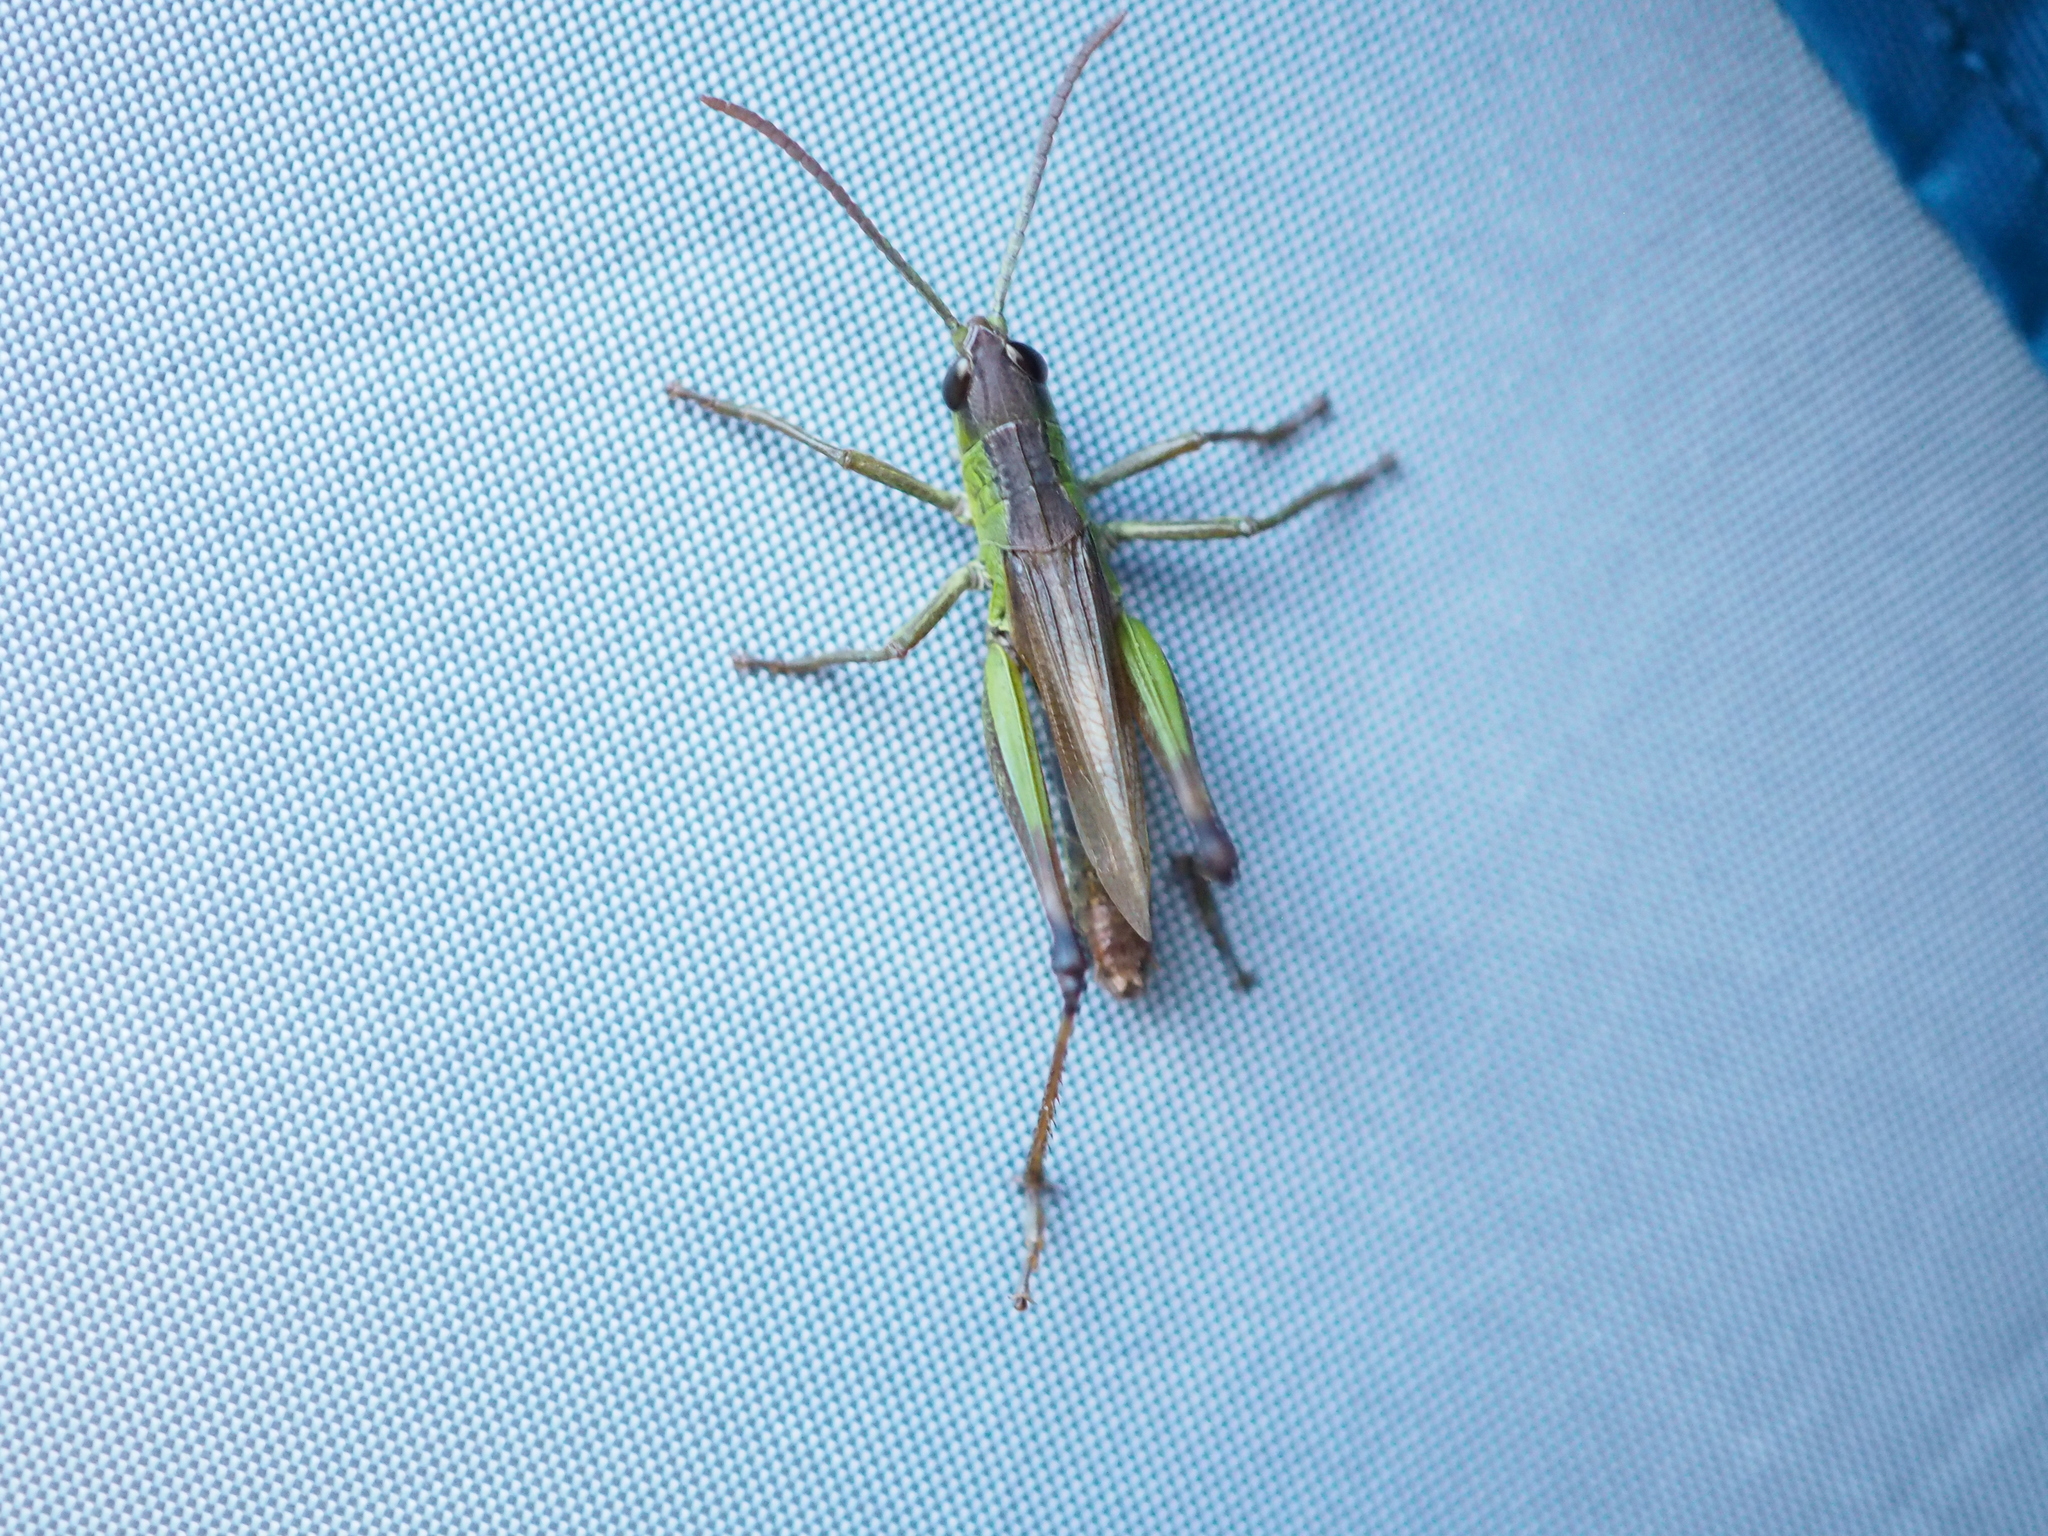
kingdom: Animalia
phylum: Arthropoda
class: Insecta
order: Orthoptera
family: Acrididae
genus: Pseudochorthippus
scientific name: Pseudochorthippus parallelus
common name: Meadow grasshopper
